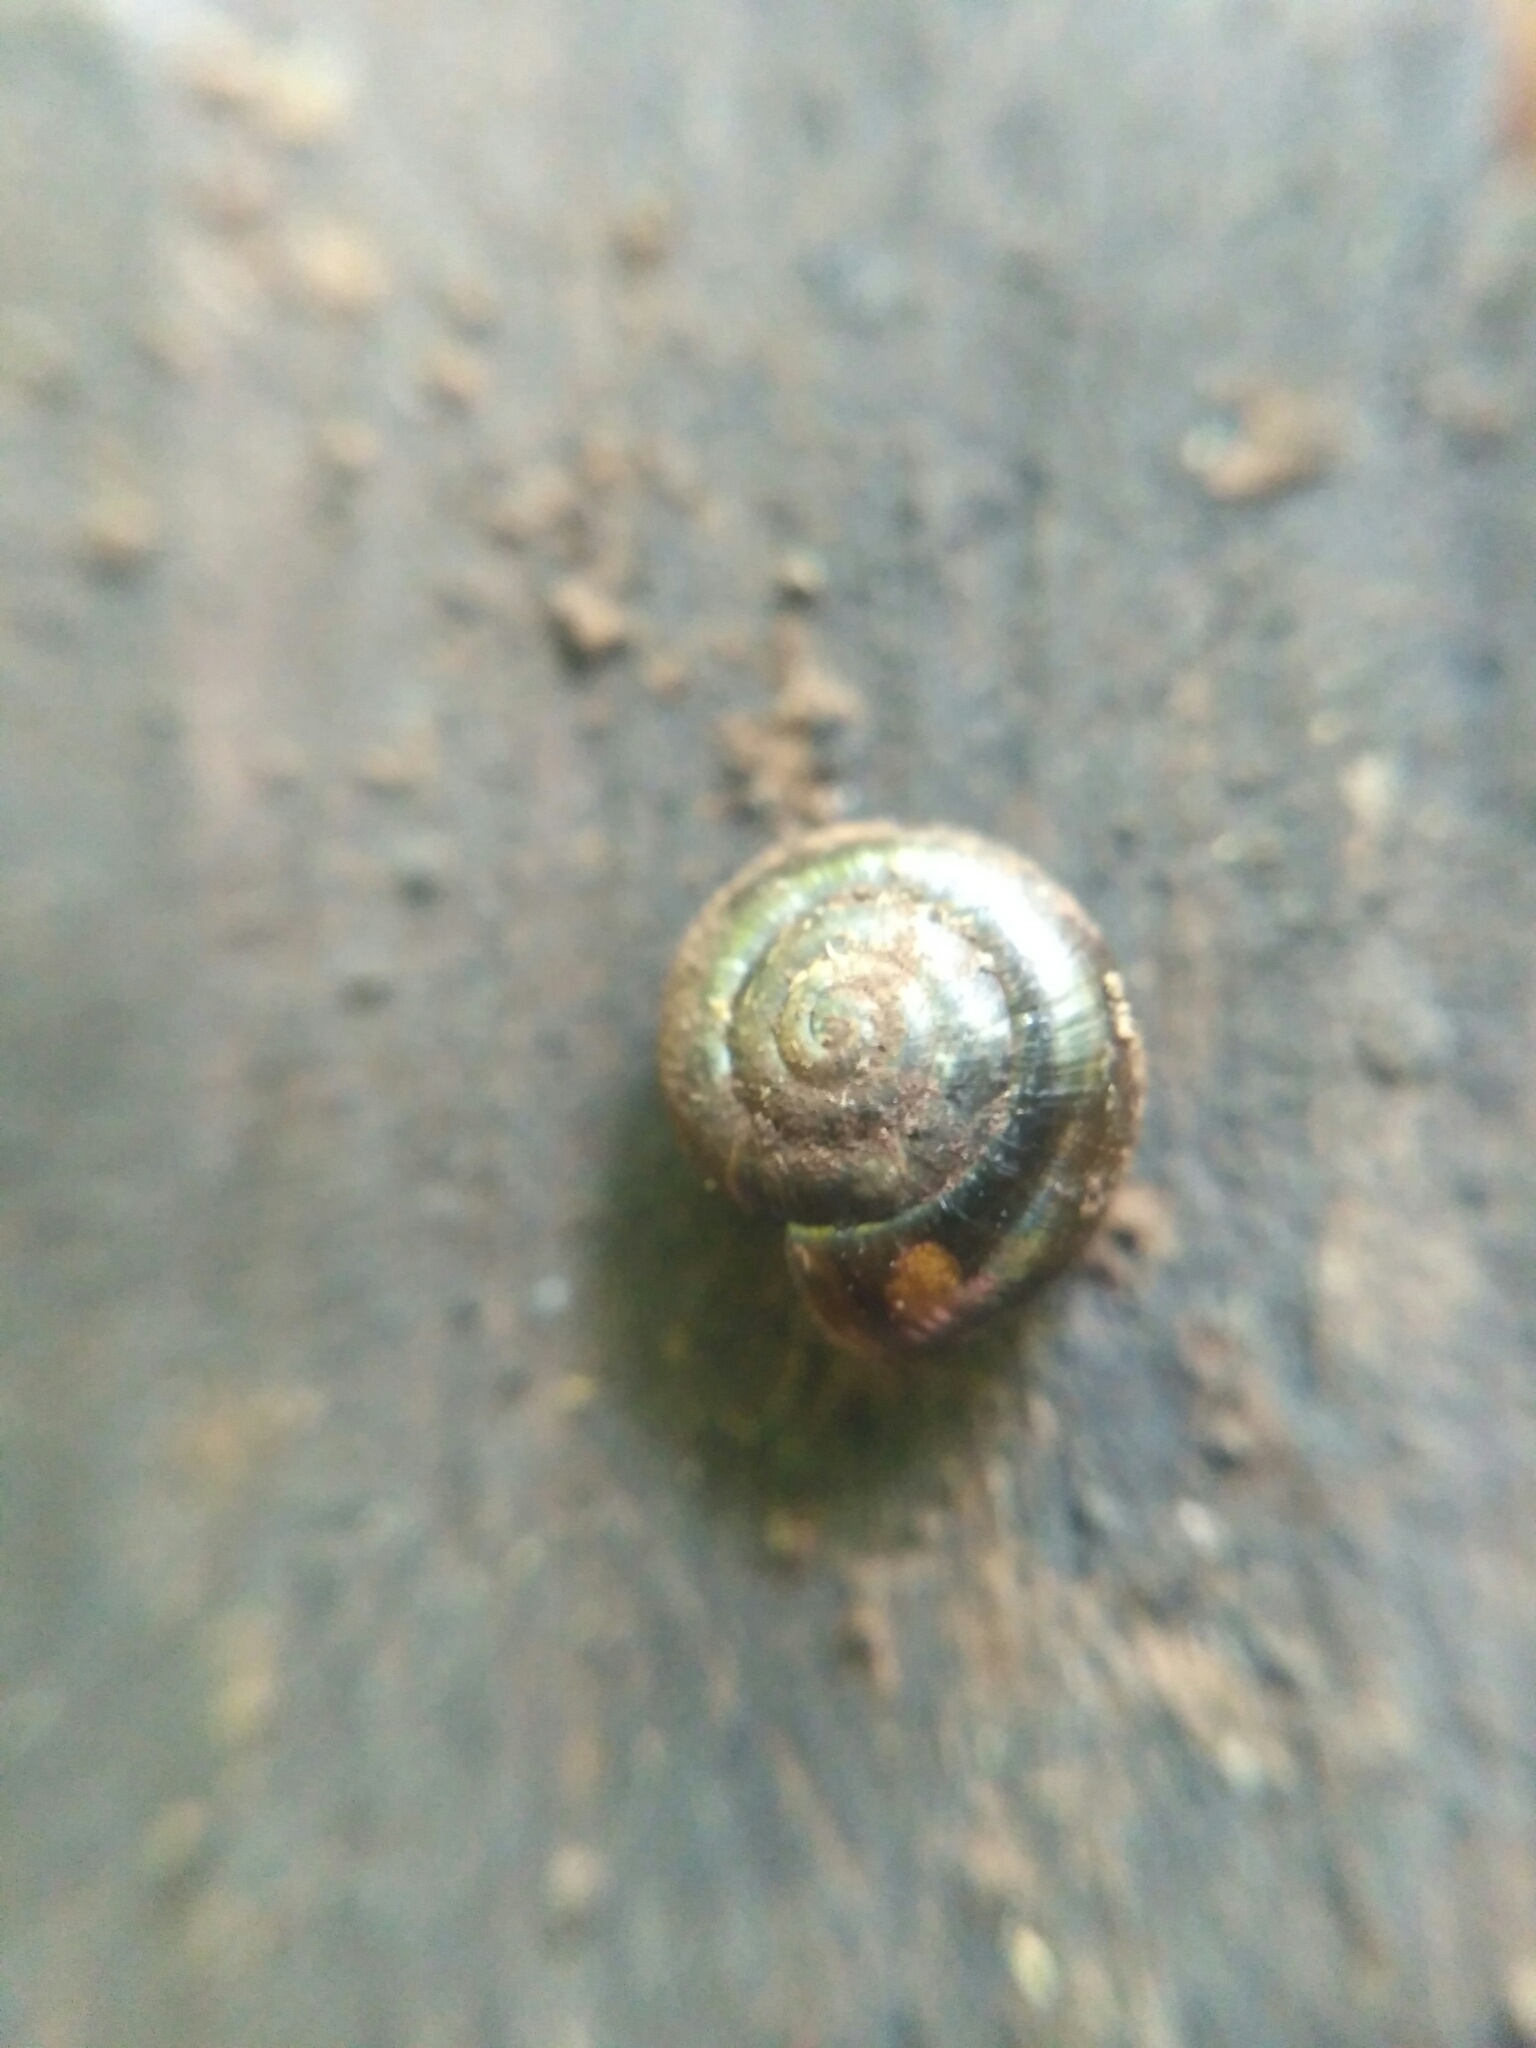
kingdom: Animalia
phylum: Mollusca
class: Gastropoda
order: Stylommatophora
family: Gastrodontidae
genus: Zonitoides
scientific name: Zonitoides nitidus
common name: Shiny glass snail
